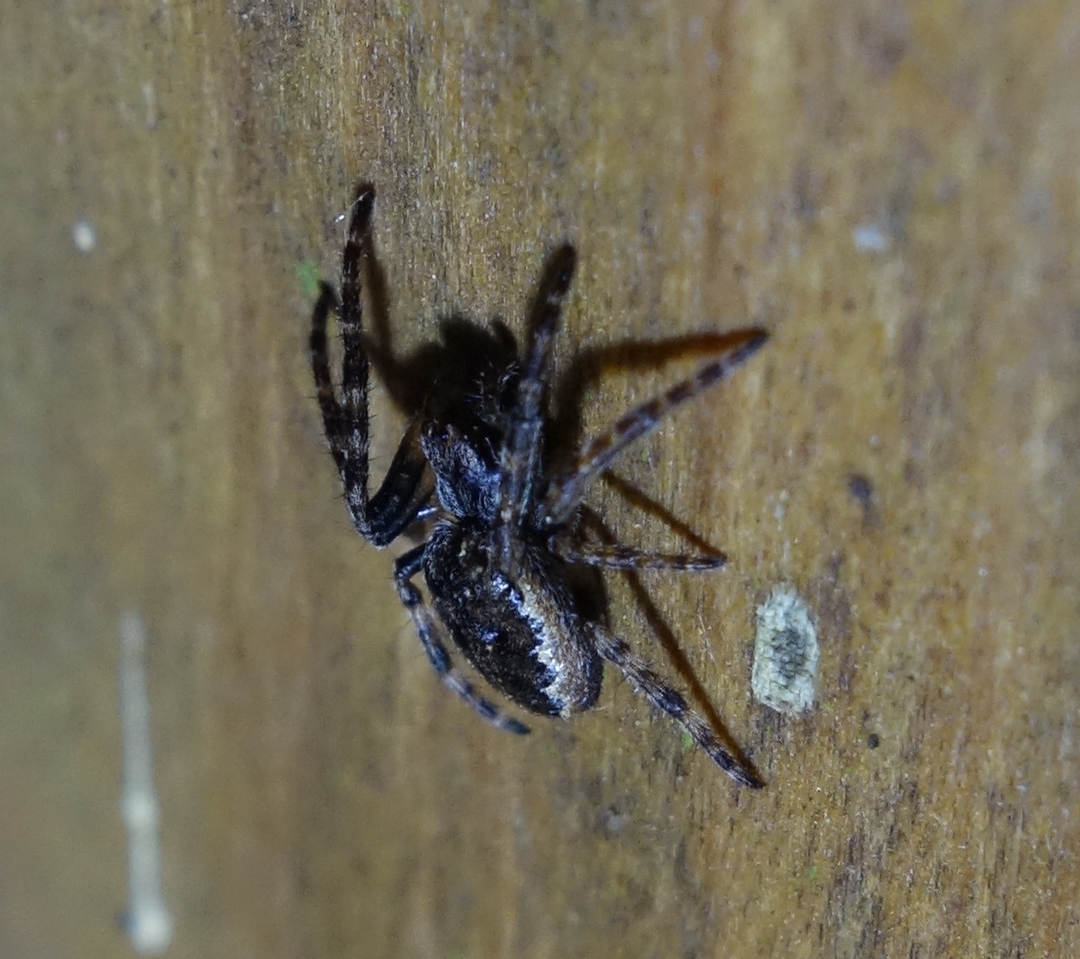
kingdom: Animalia
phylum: Arthropoda
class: Arachnida
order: Araneae
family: Araneidae
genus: Nuctenea
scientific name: Nuctenea umbratica
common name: Toad spider
